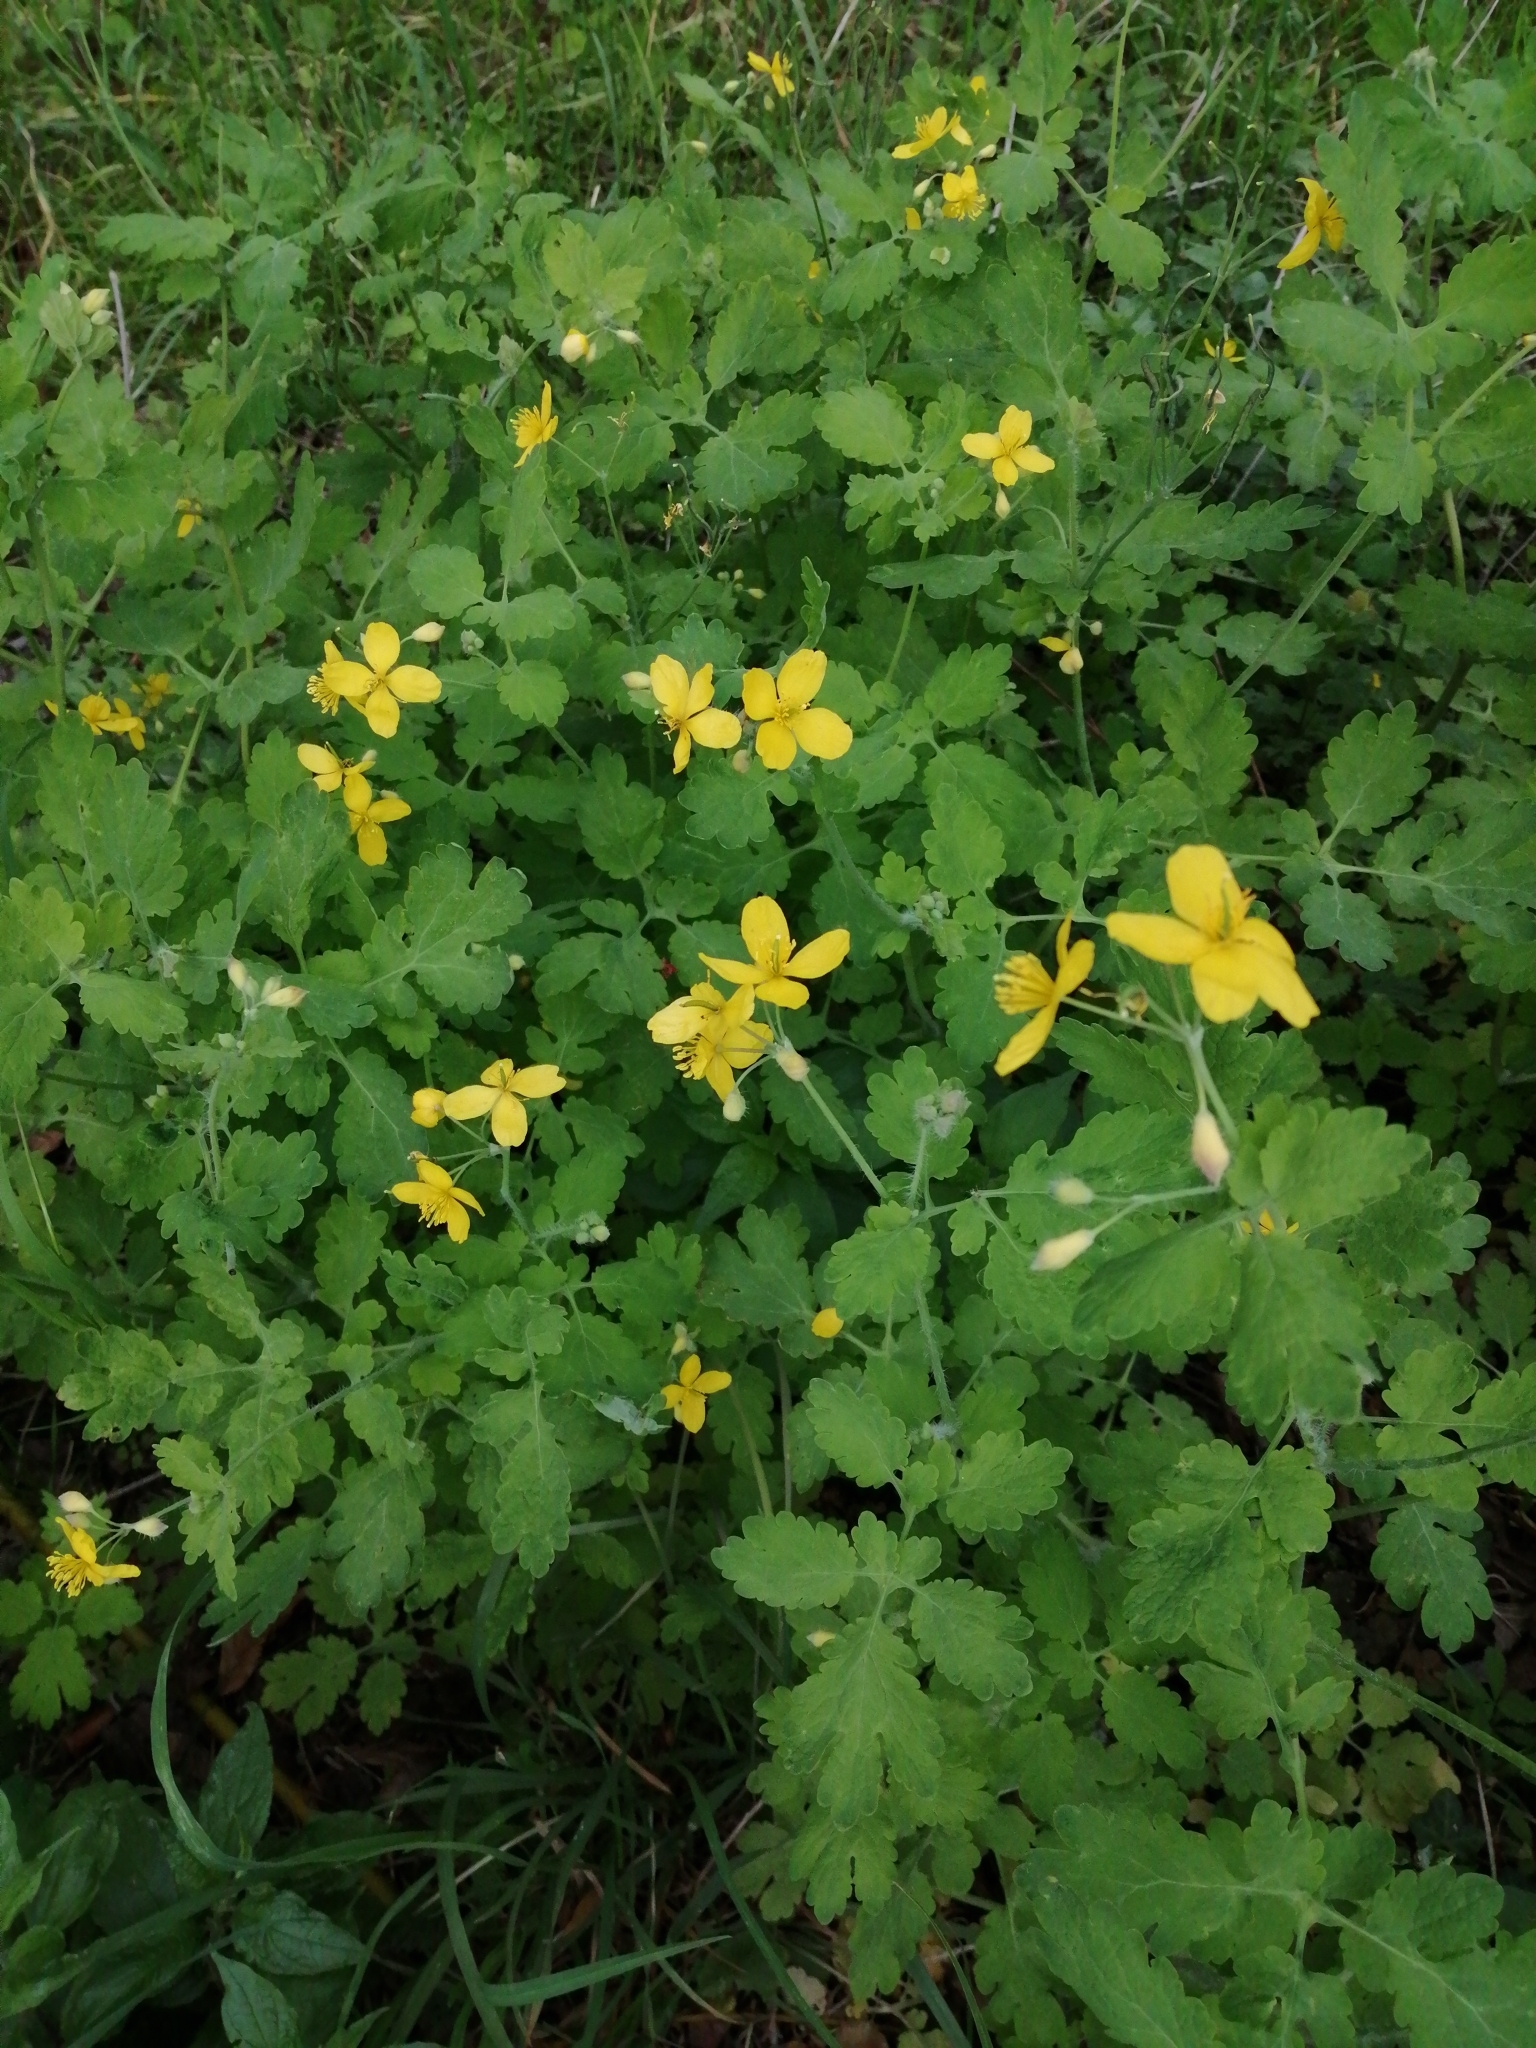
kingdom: Plantae
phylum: Tracheophyta
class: Magnoliopsida
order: Ranunculales
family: Papaveraceae
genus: Chelidonium
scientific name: Chelidonium majus
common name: Greater celandine
